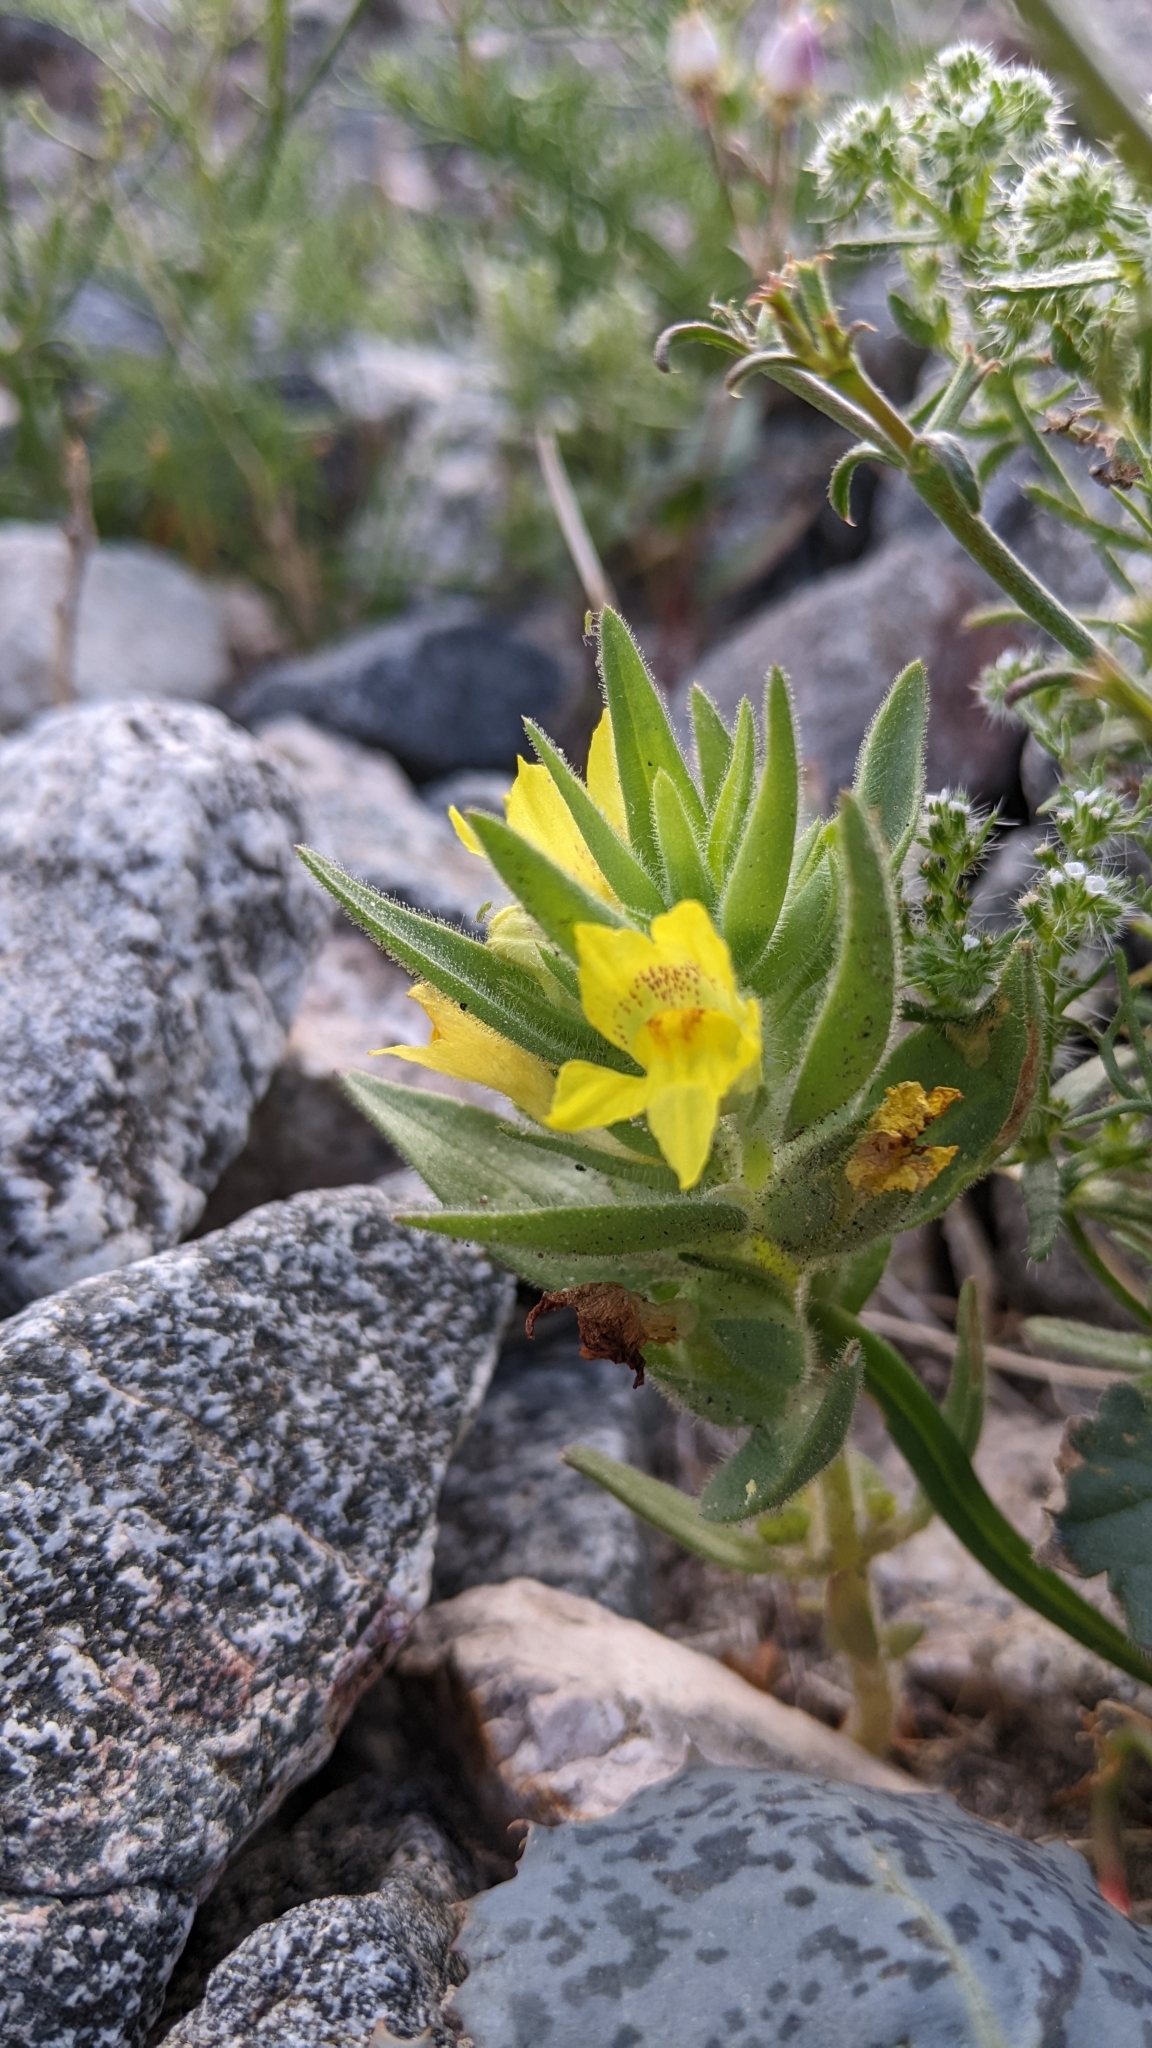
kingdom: Plantae
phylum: Tracheophyta
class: Magnoliopsida
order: Lamiales
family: Plantaginaceae
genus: Mohavea
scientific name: Mohavea breviflora
